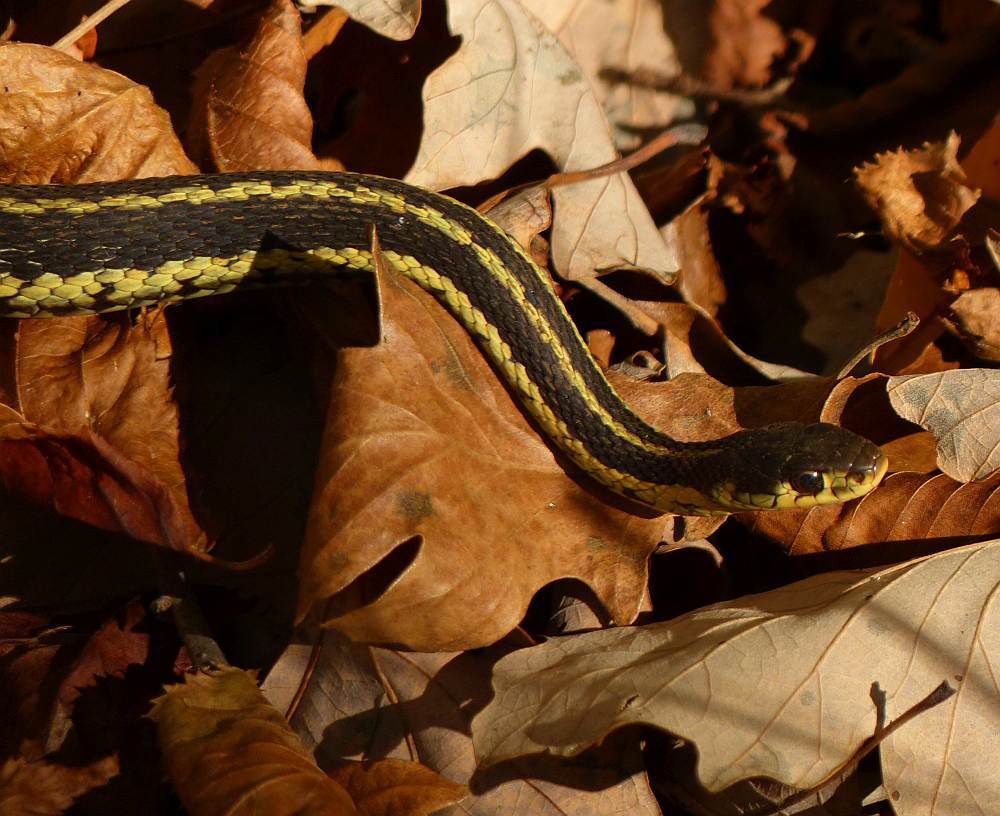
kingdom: Animalia
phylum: Chordata
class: Squamata
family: Colubridae
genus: Thamnophis
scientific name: Thamnophis sirtalis
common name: Common garter snake
